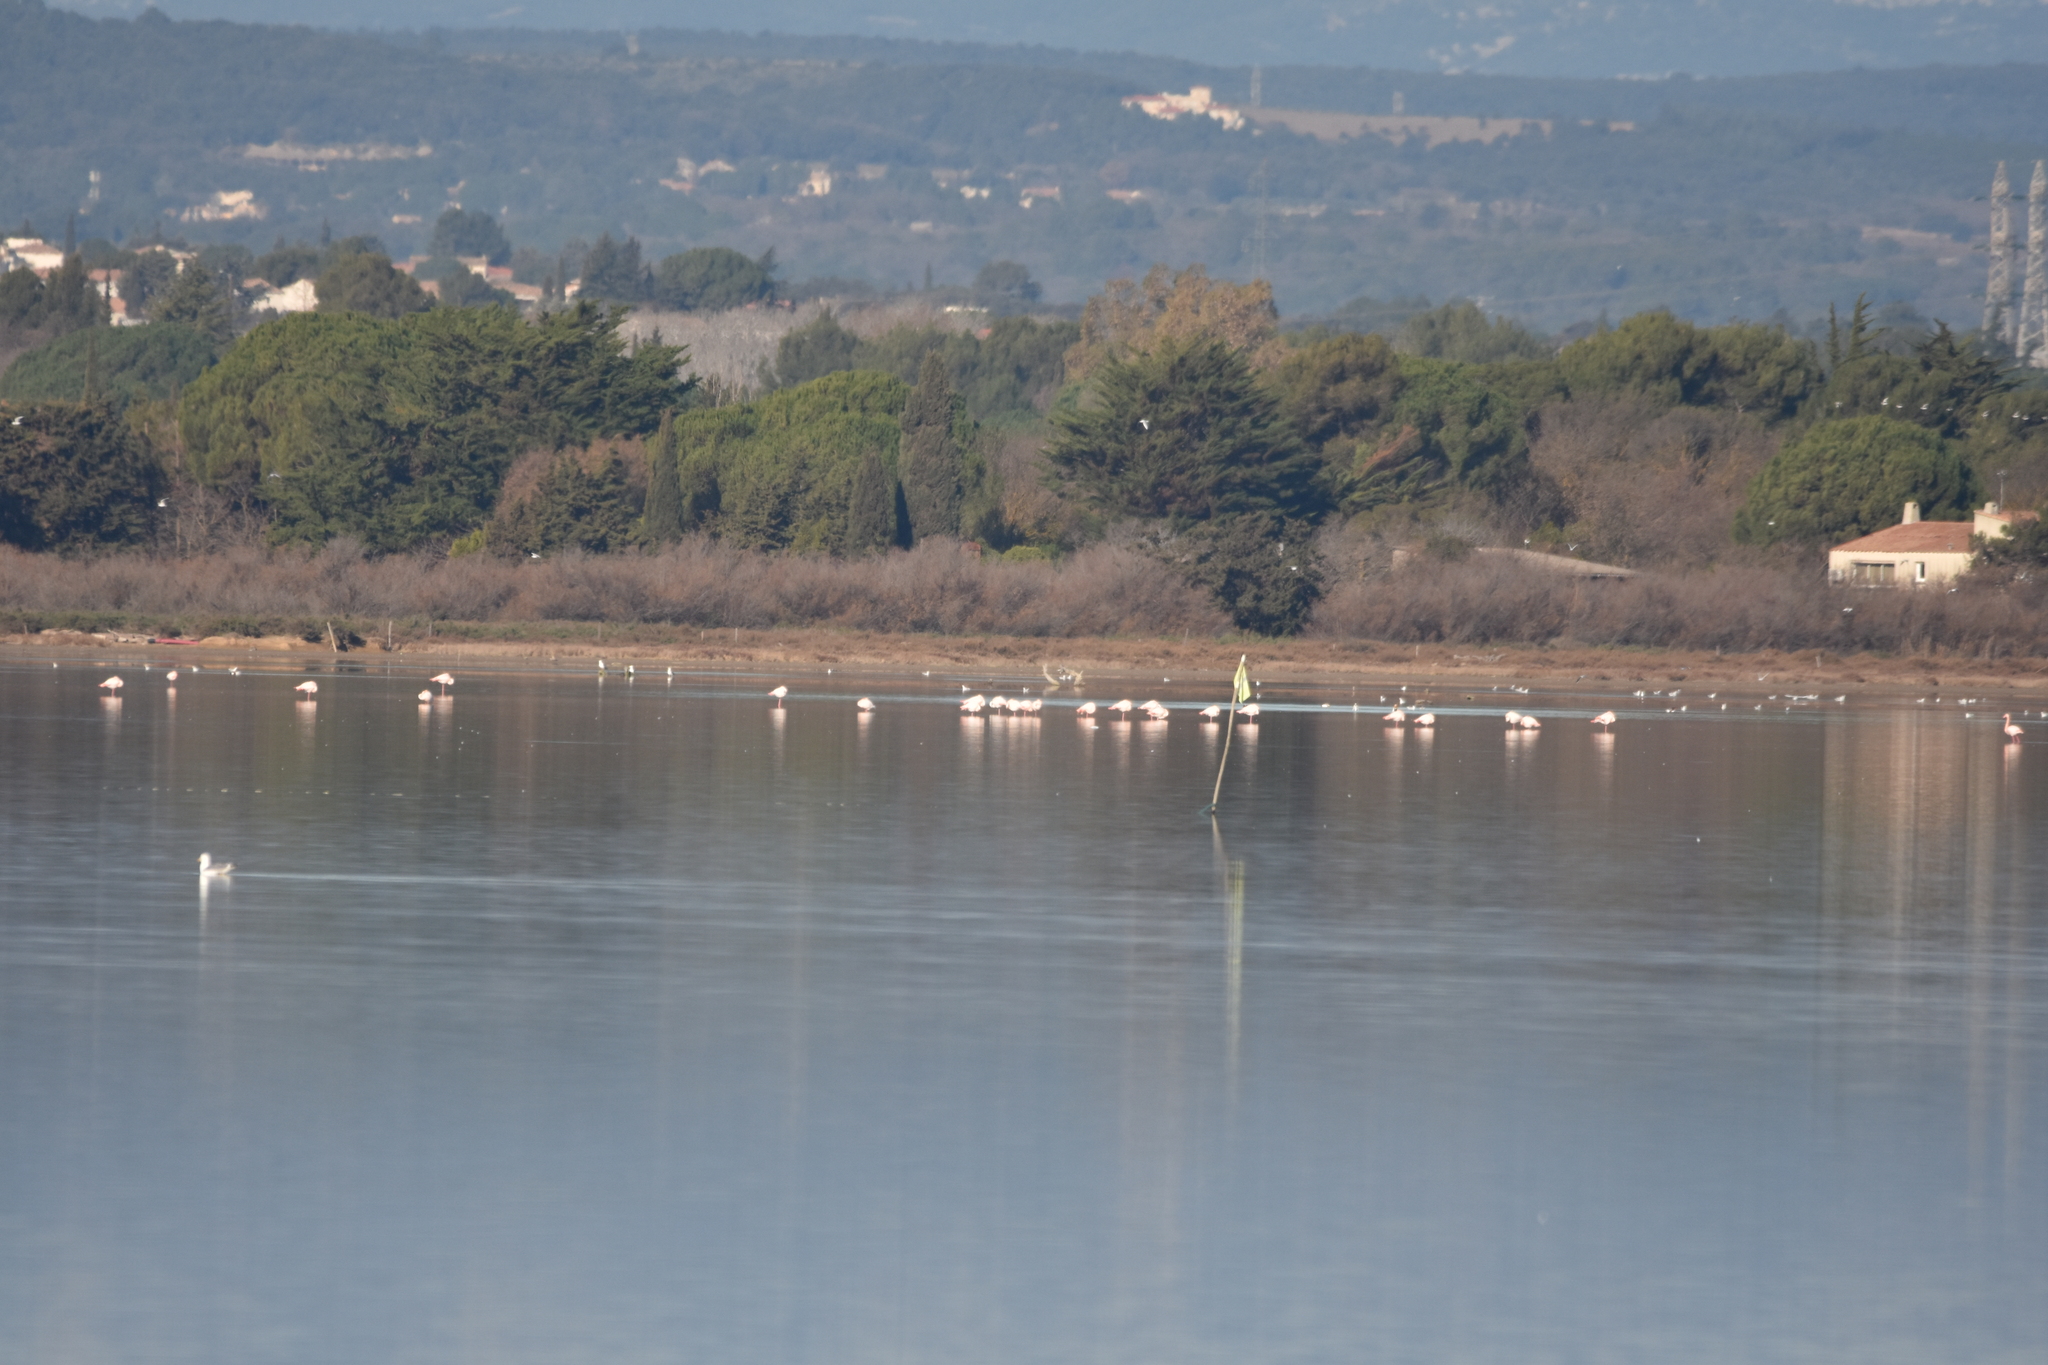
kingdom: Animalia
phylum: Chordata
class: Aves
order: Phoenicopteriformes
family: Phoenicopteridae
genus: Phoenicopterus
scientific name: Phoenicopterus roseus
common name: Greater flamingo
